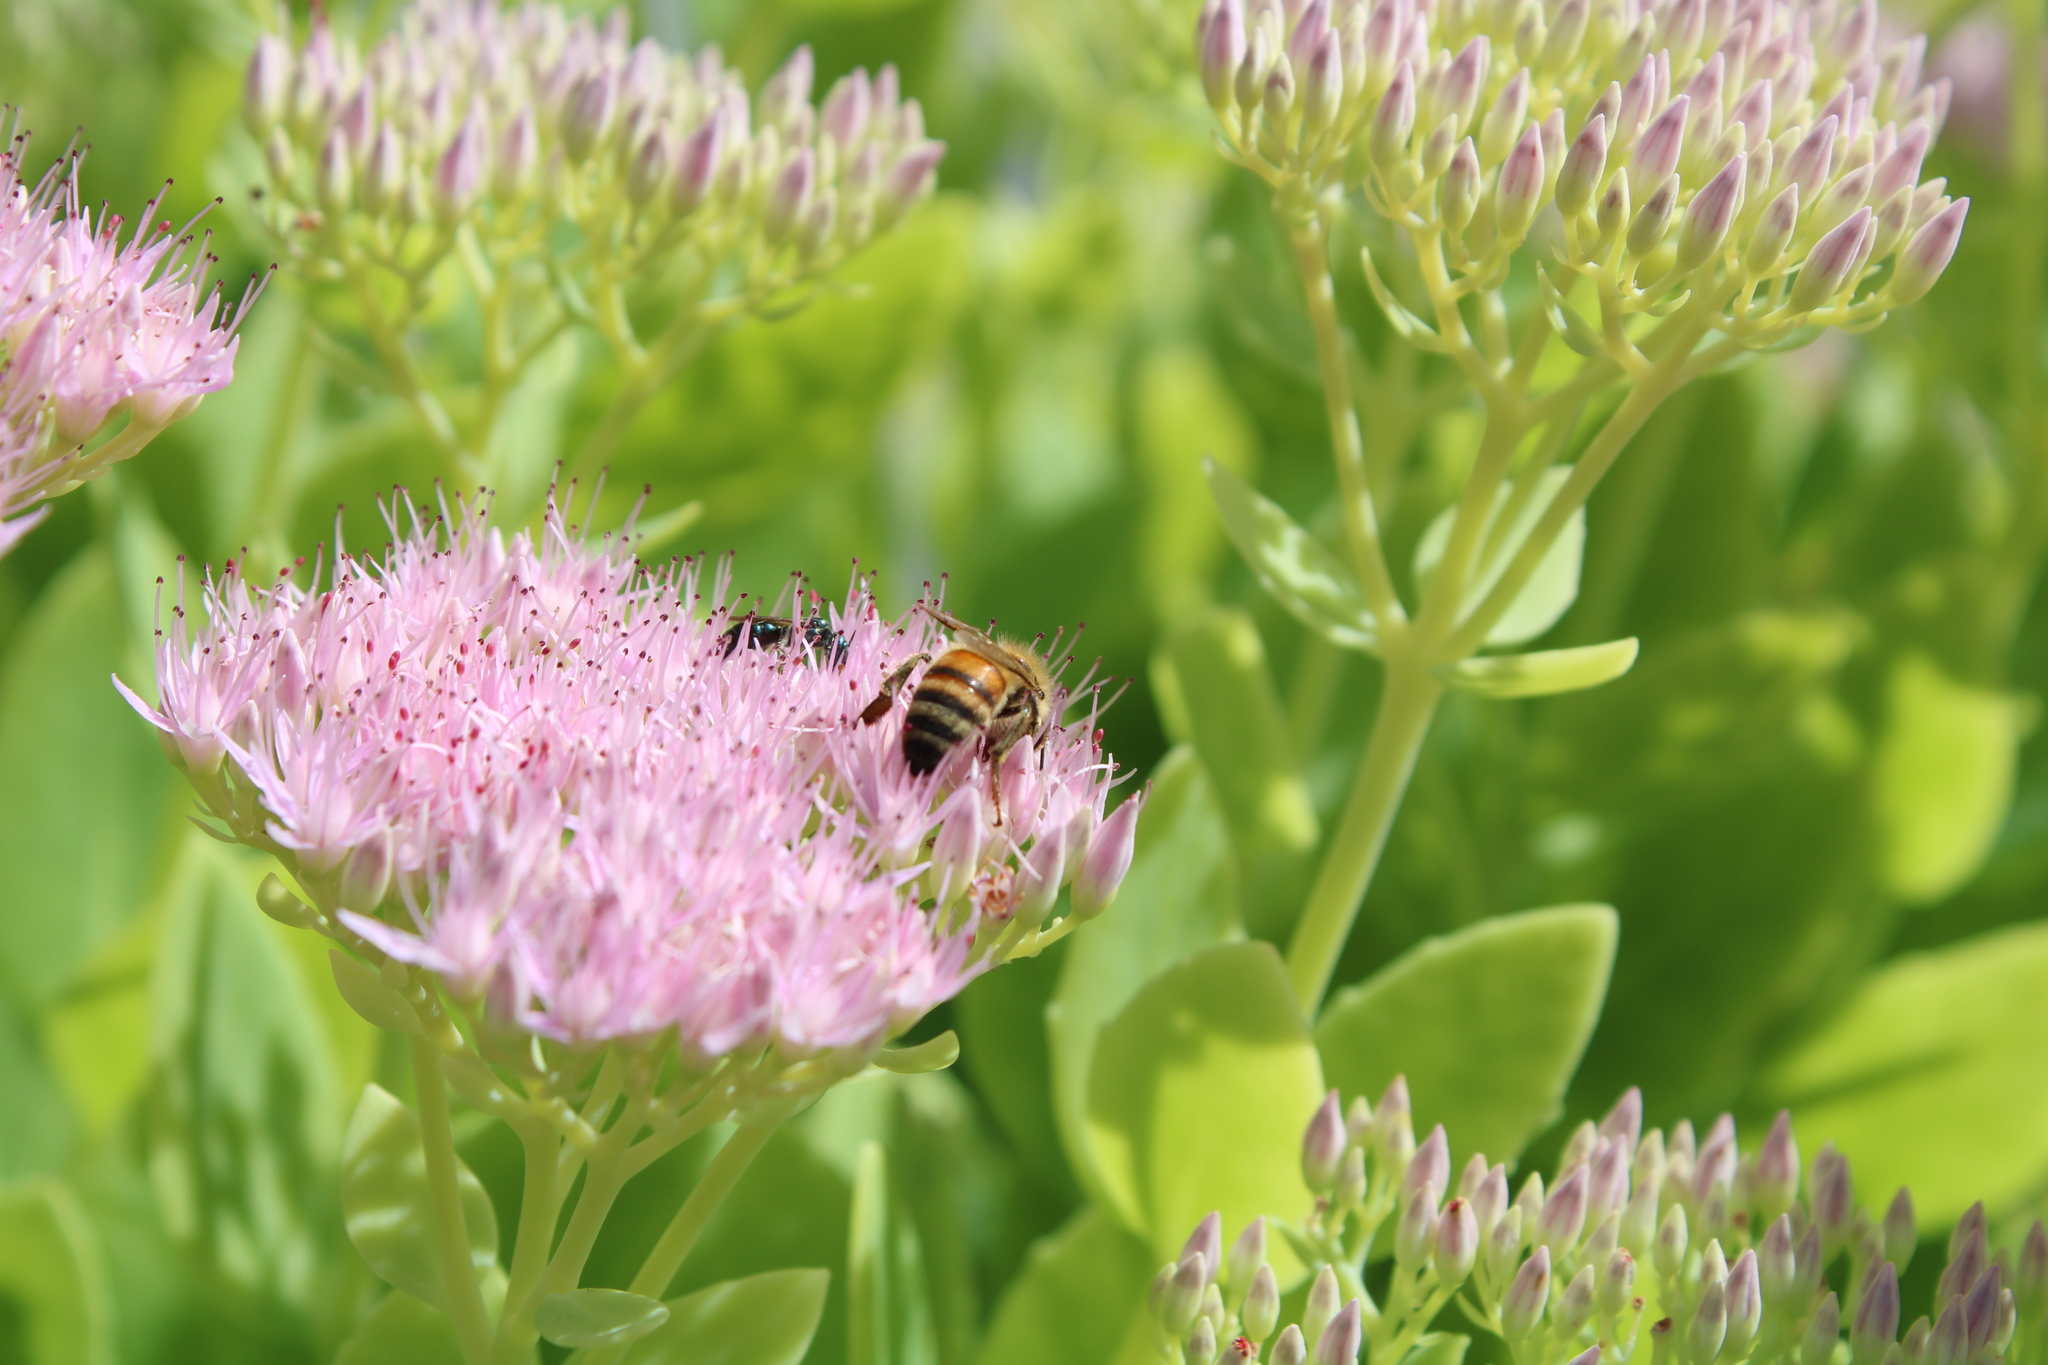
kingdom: Animalia
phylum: Arthropoda
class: Insecta
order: Hymenoptera
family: Apidae
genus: Apis
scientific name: Apis mellifera
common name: Honey bee
